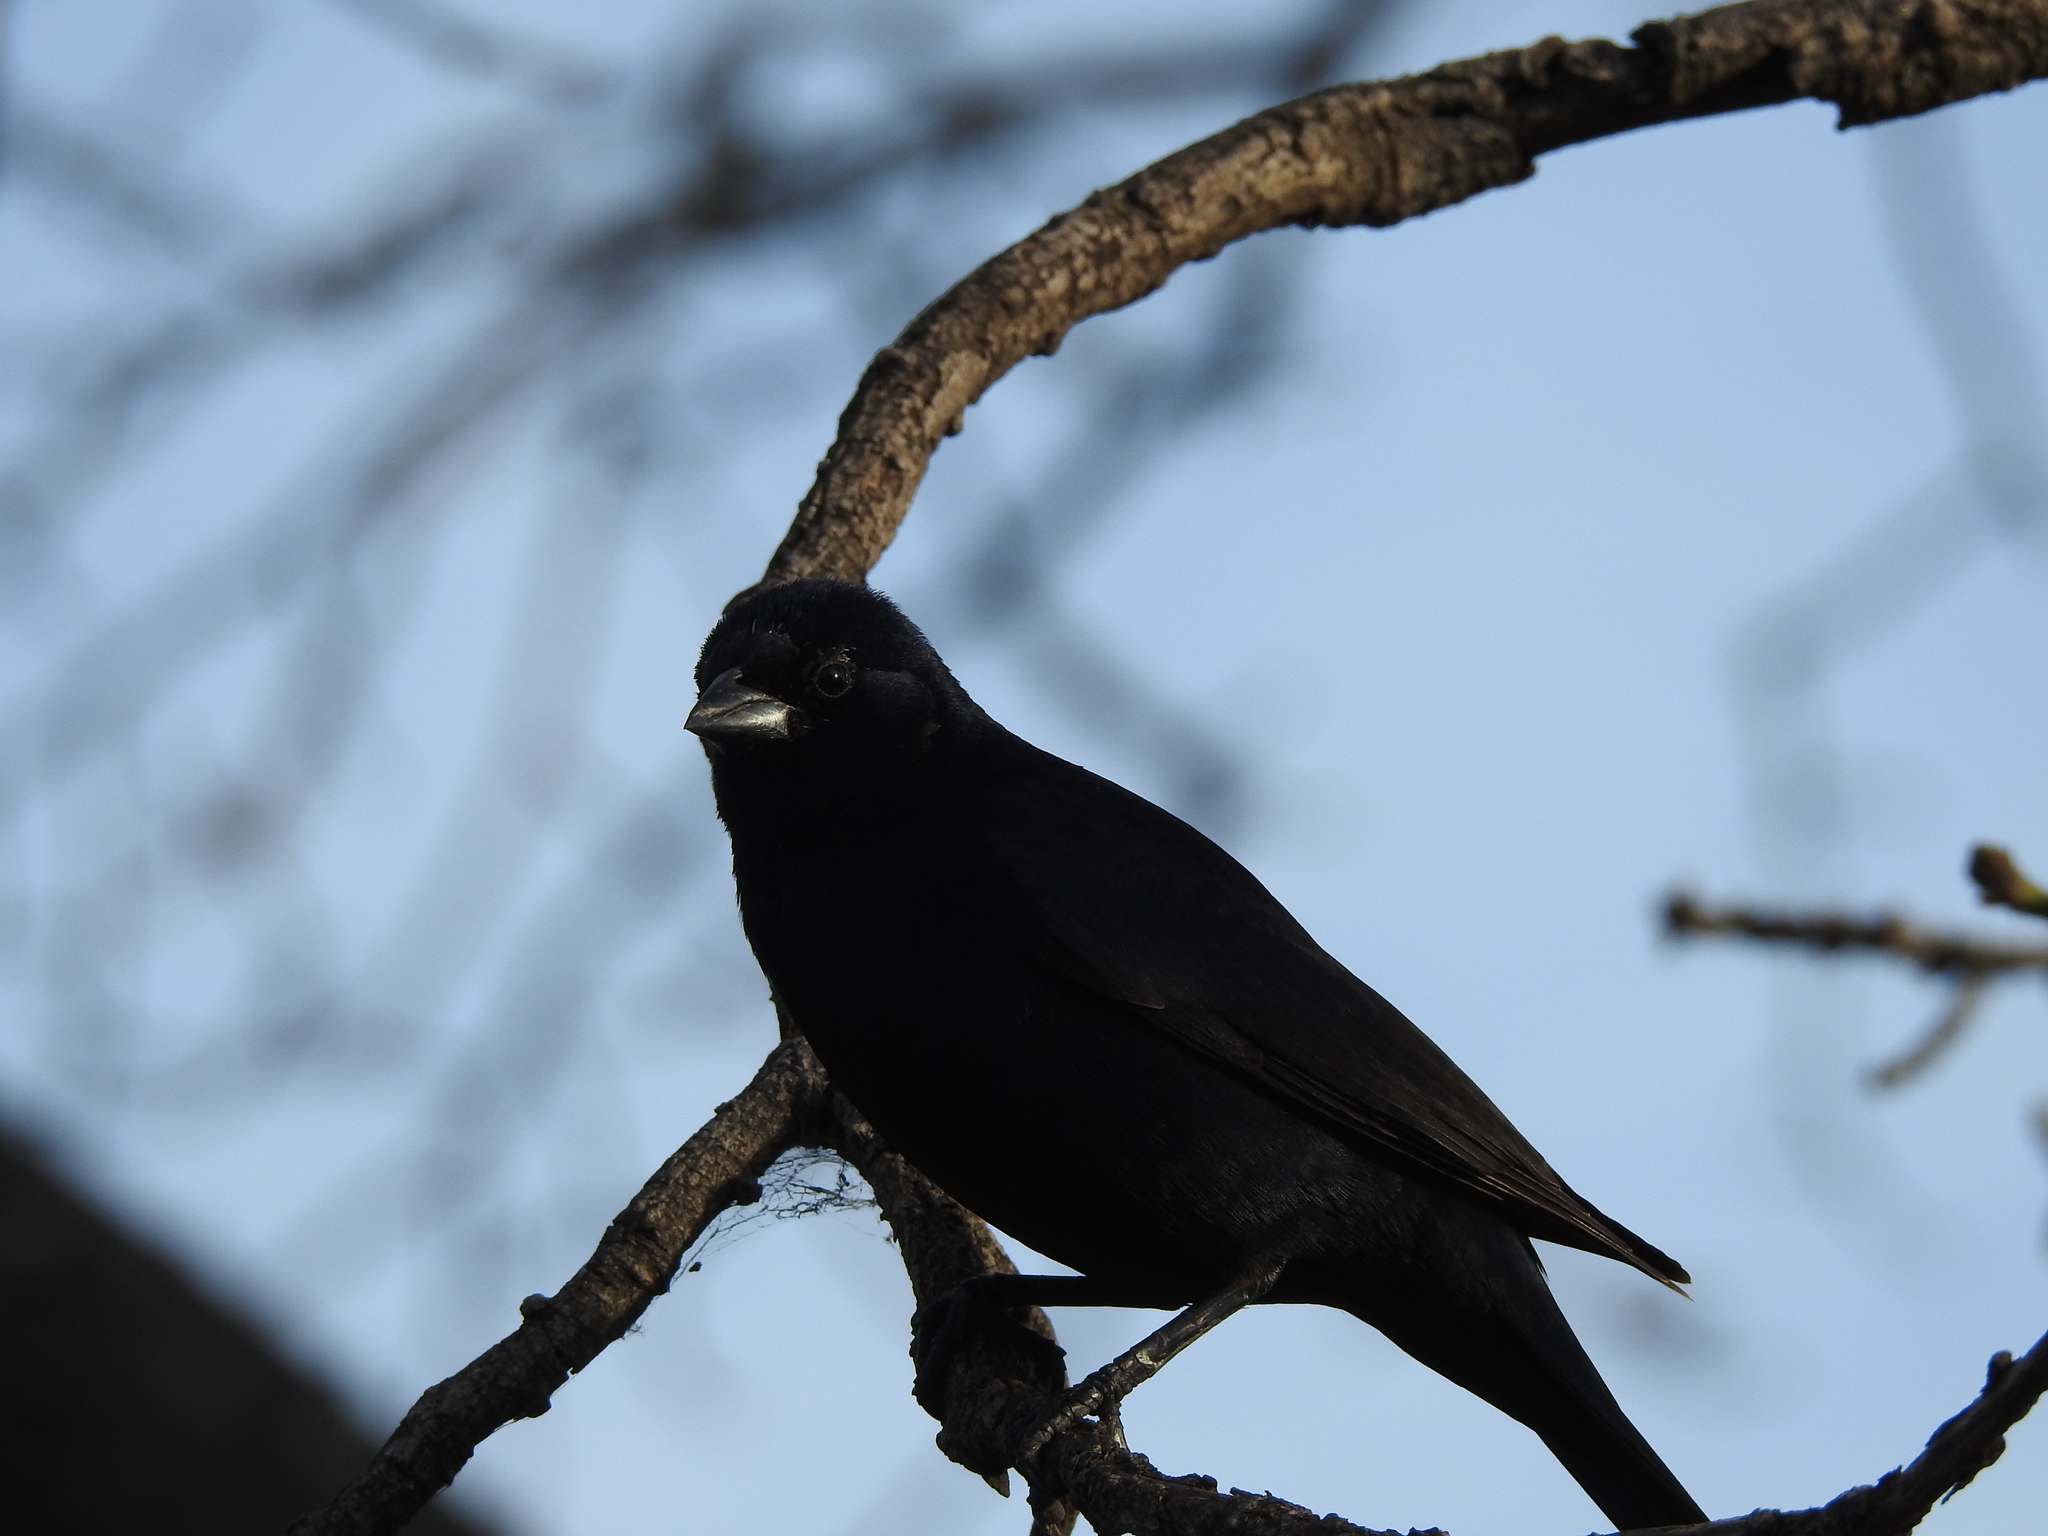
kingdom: Animalia
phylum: Chordata
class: Aves
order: Passeriformes
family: Icteridae
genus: Molothrus
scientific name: Molothrus rufoaxillaris
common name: Screaming cowbird
